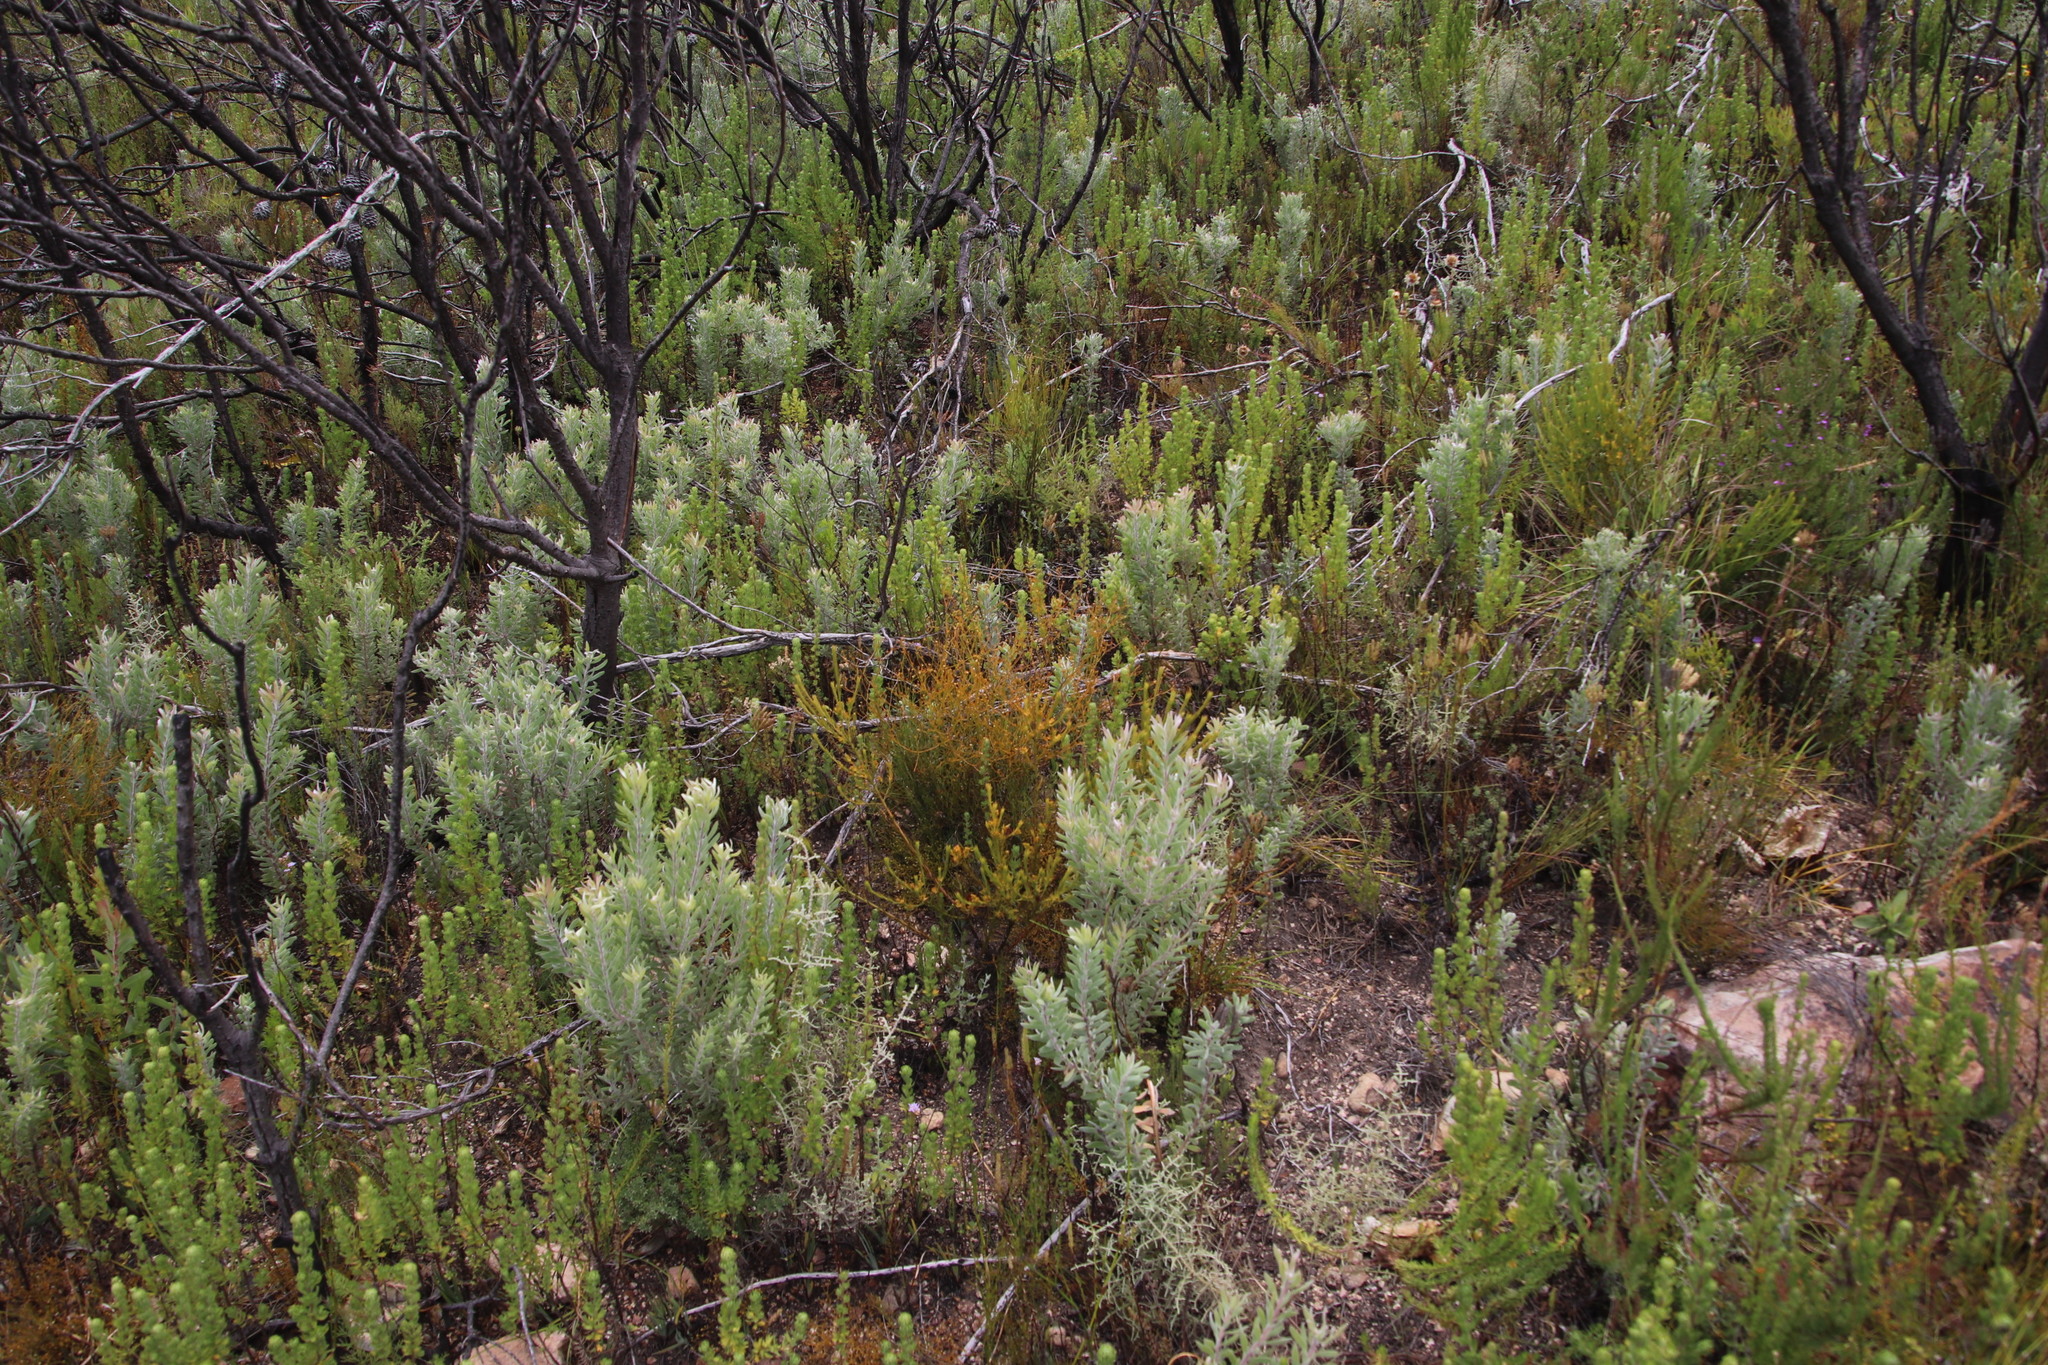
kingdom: Plantae
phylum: Tracheophyta
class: Magnoliopsida
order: Proteales
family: Proteaceae
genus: Leucadendron
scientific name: Leucadendron rubrum
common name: Spinning top
